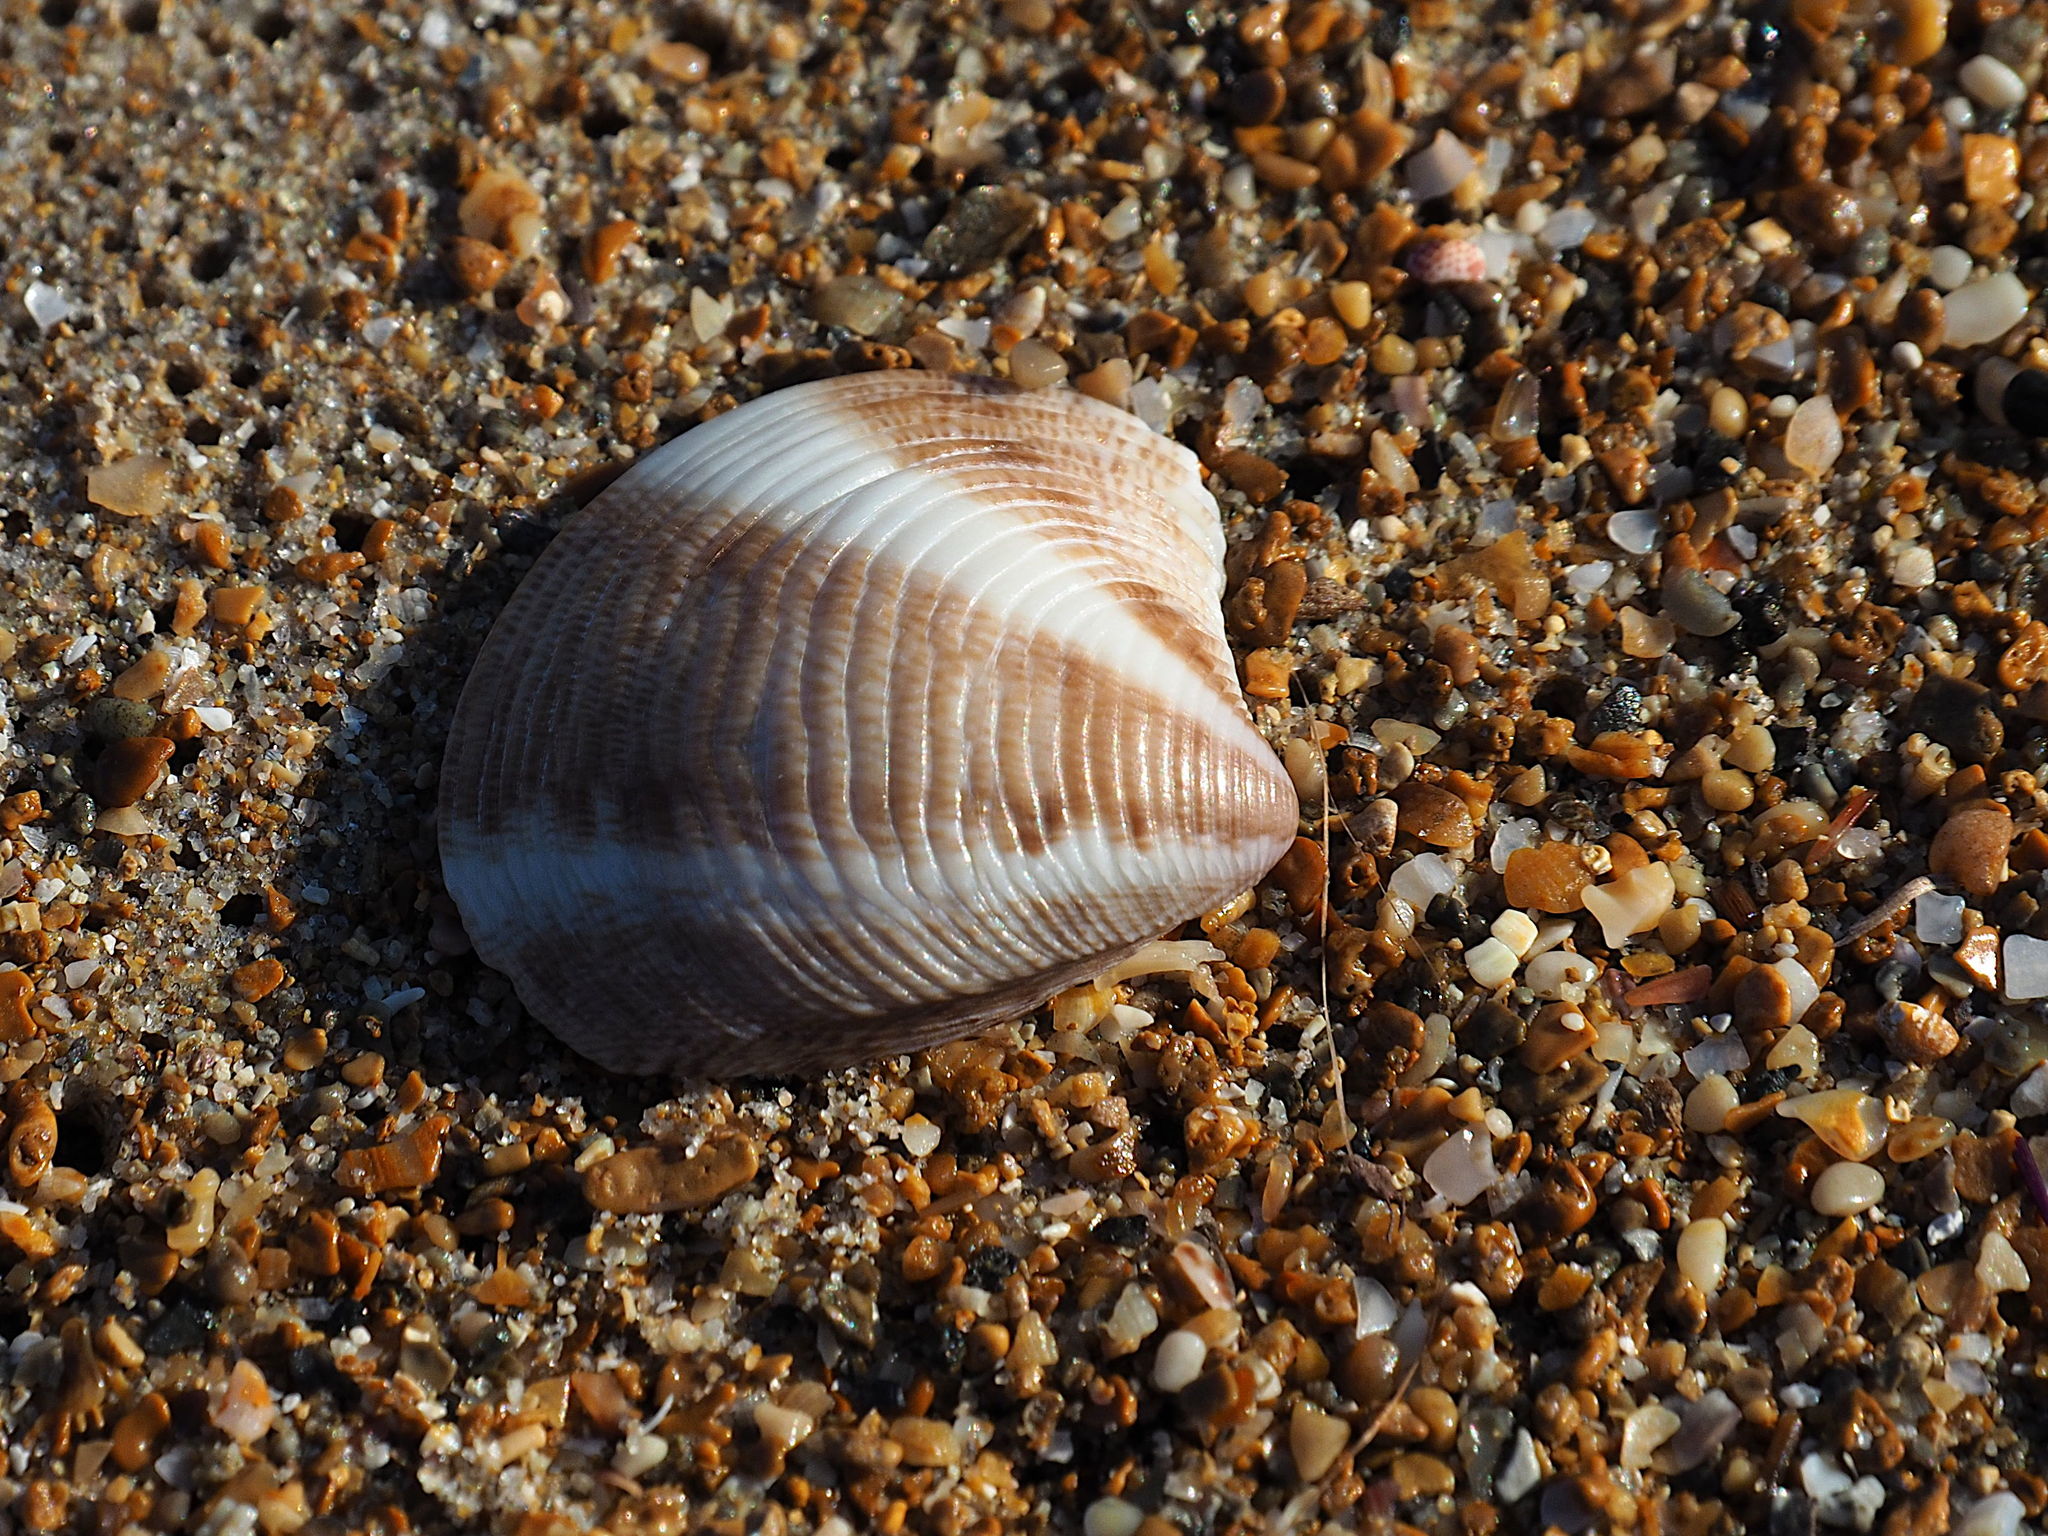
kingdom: Animalia
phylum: Mollusca
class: Bivalvia
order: Venerida
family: Veneridae
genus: Chamelea
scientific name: Chamelea gallina
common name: Chicken venus
